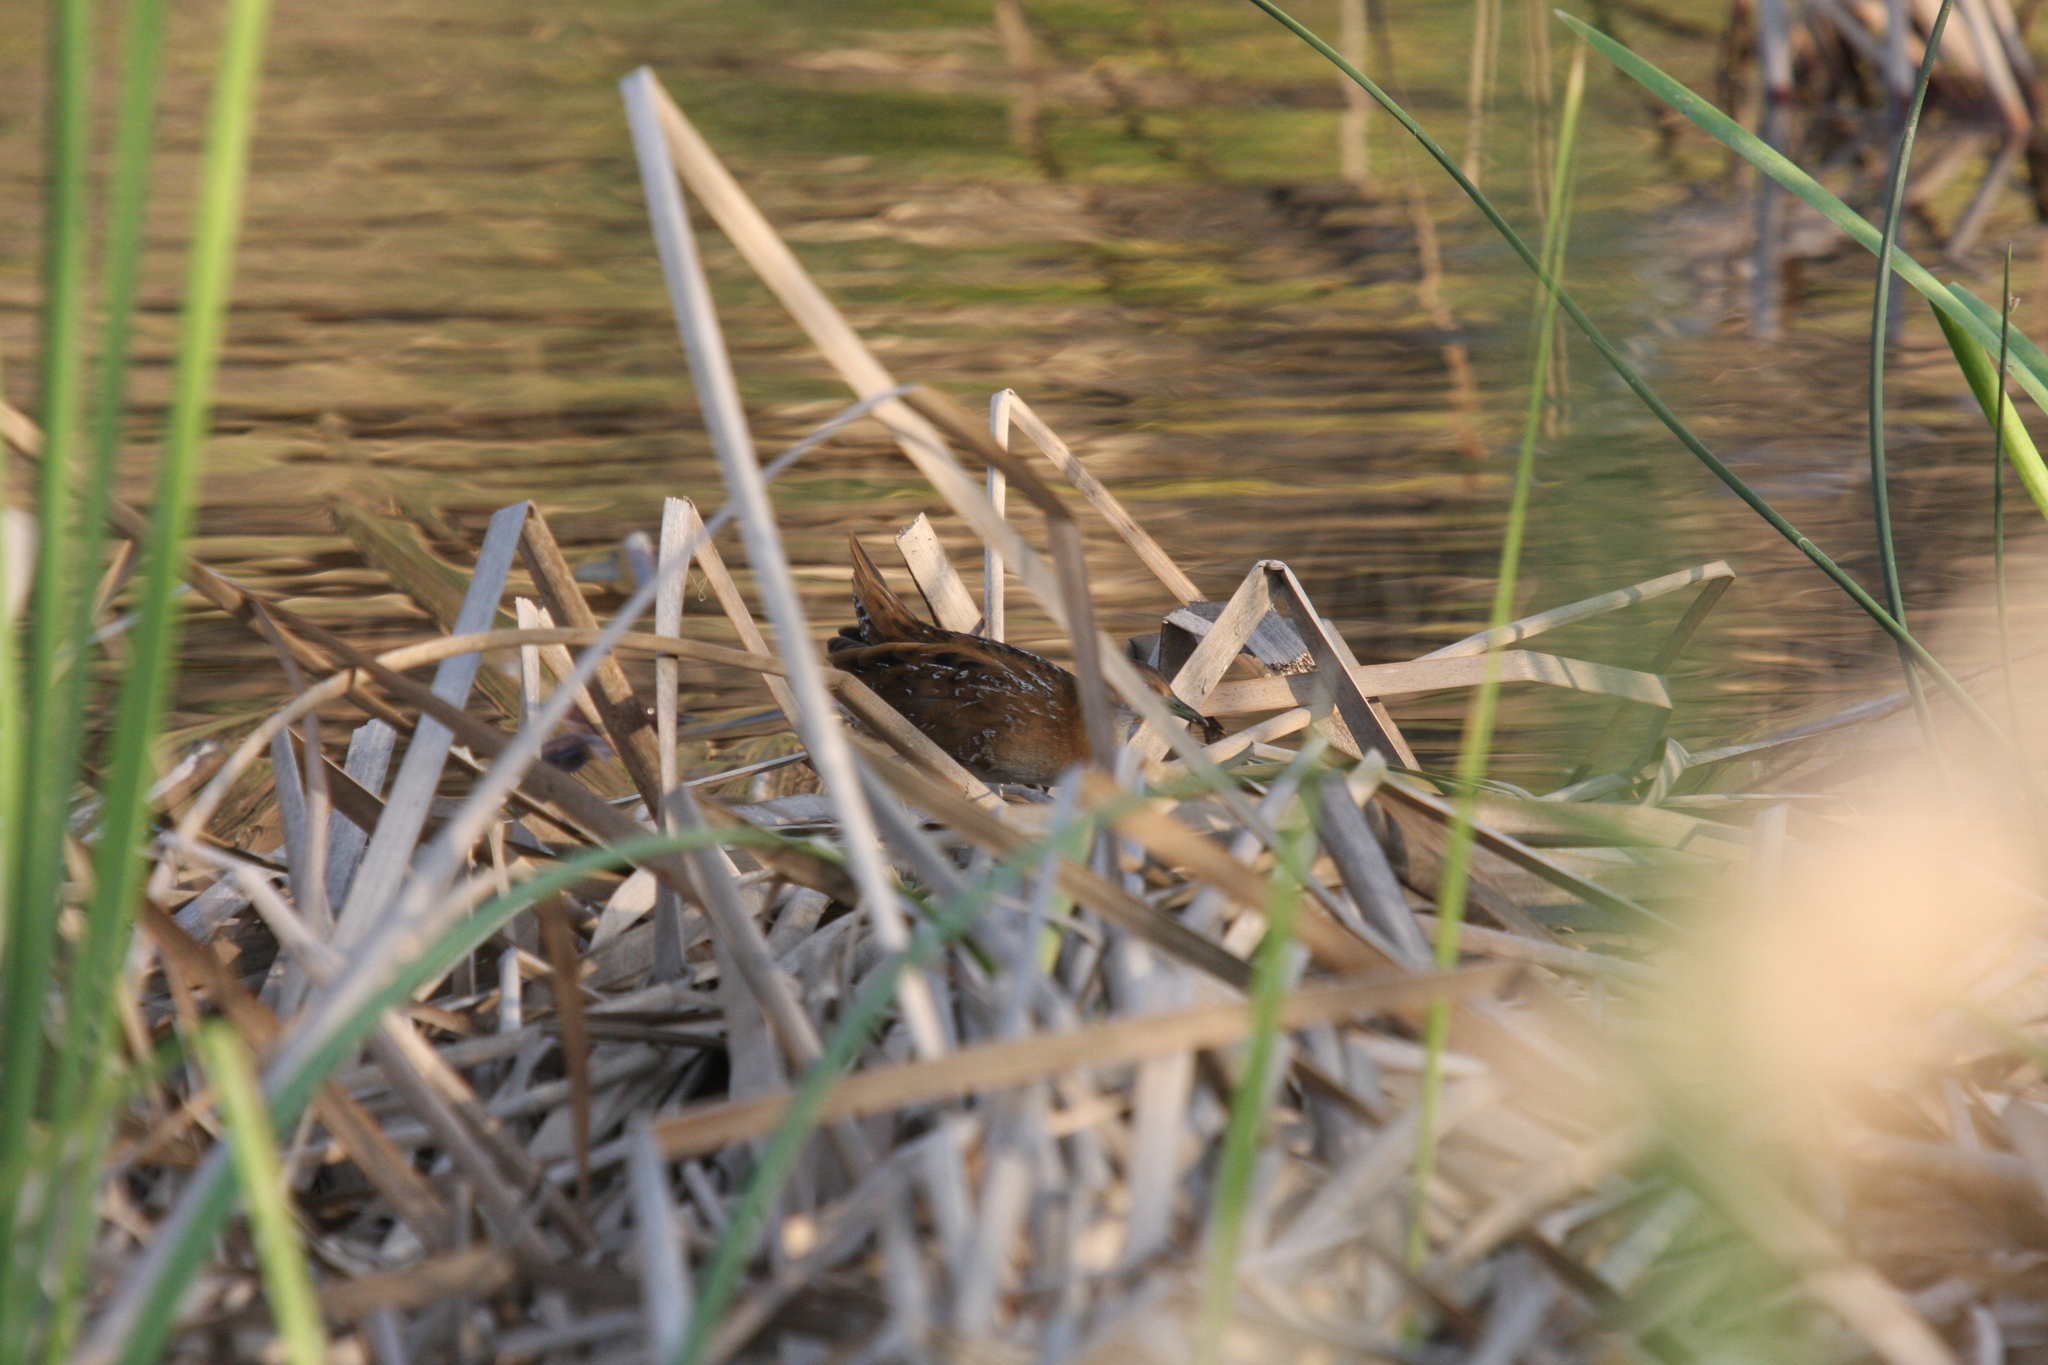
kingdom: Animalia
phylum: Chordata
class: Aves
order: Gruiformes
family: Rallidae
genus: Porzana
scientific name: Porzana pusilla
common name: Baillon's crake
